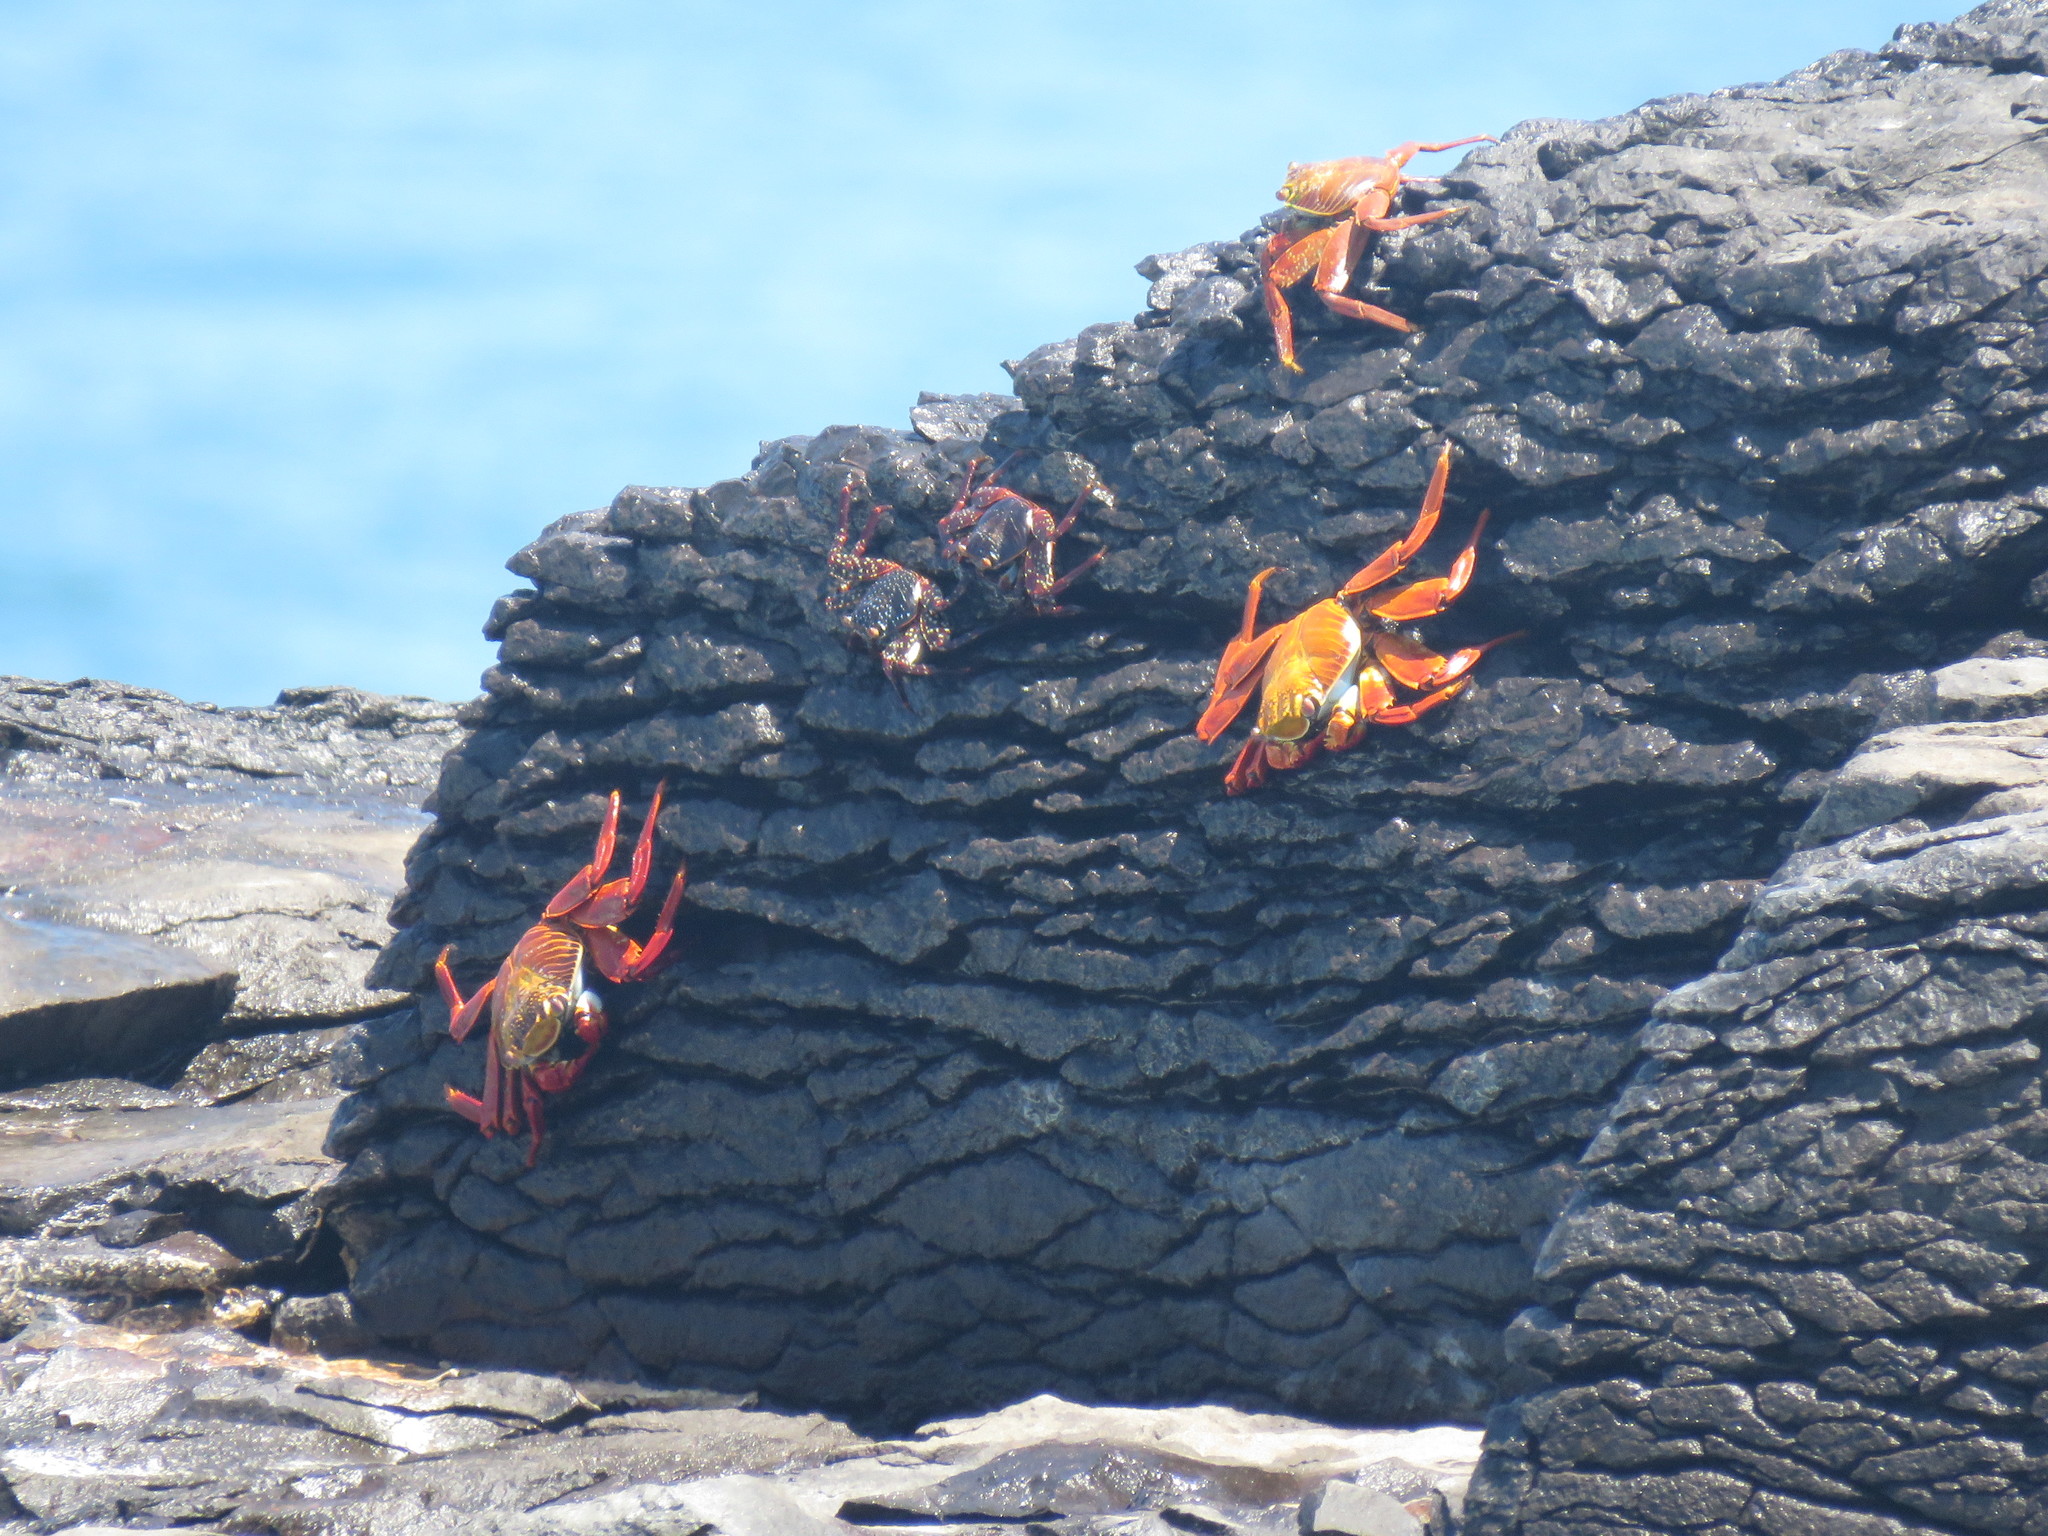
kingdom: Animalia
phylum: Arthropoda
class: Malacostraca
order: Decapoda
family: Grapsidae
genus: Grapsus
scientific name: Grapsus grapsus
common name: Sally lightfoot
